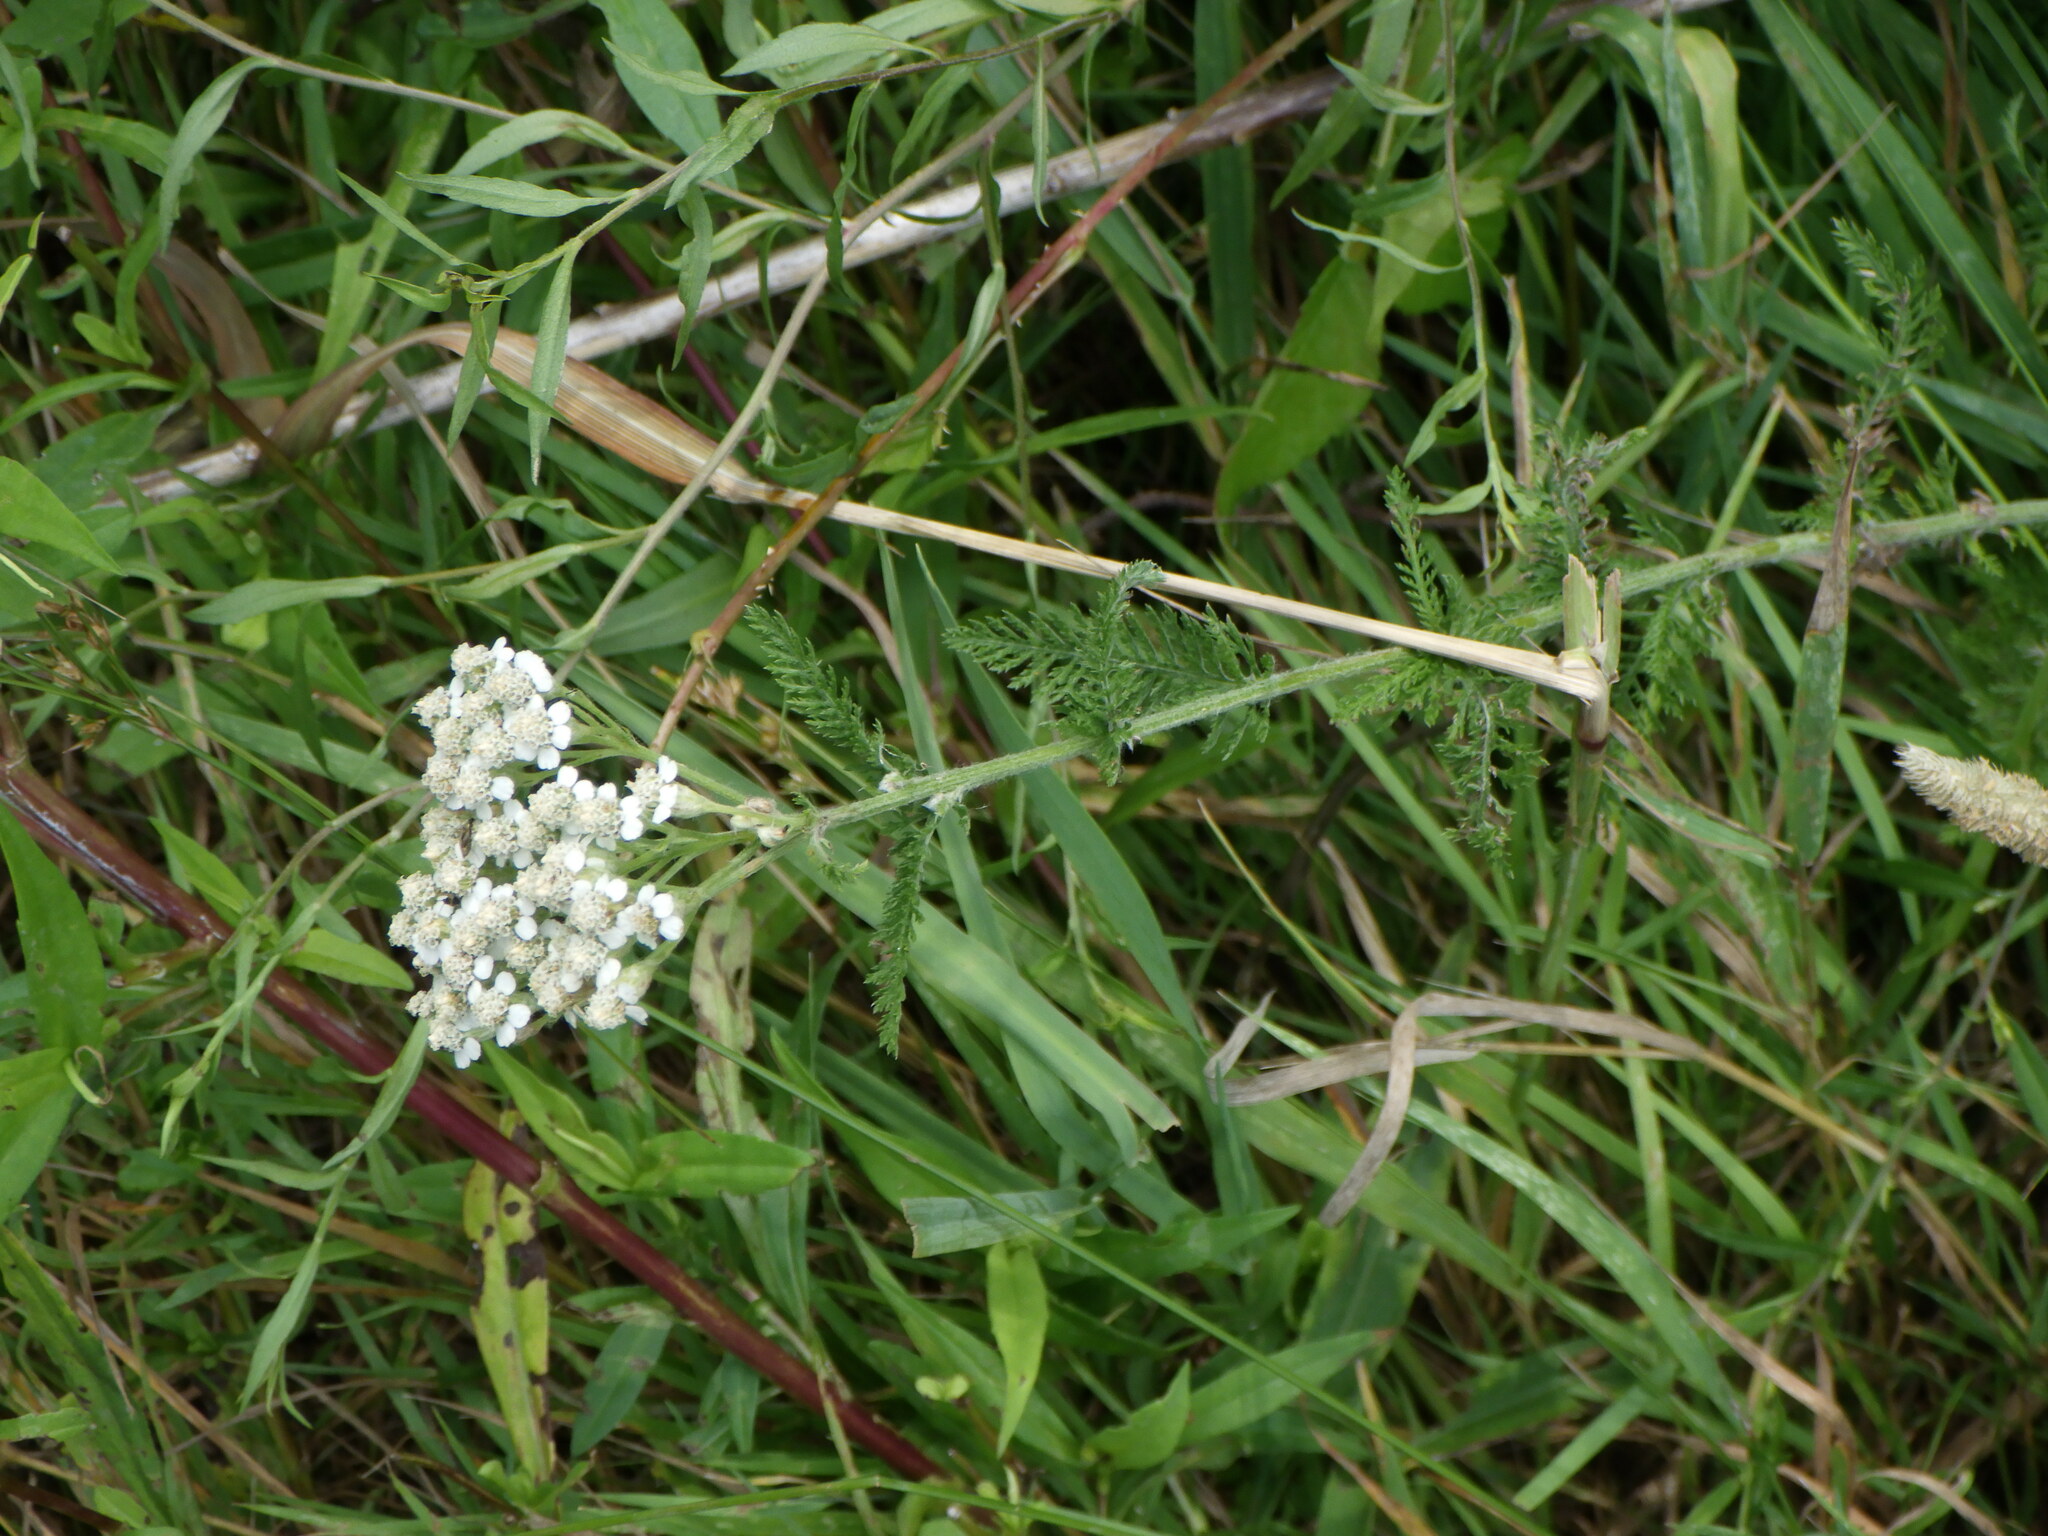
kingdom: Plantae
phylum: Tracheophyta
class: Magnoliopsida
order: Asterales
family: Asteraceae
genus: Achillea
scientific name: Achillea millefolium
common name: Yarrow
